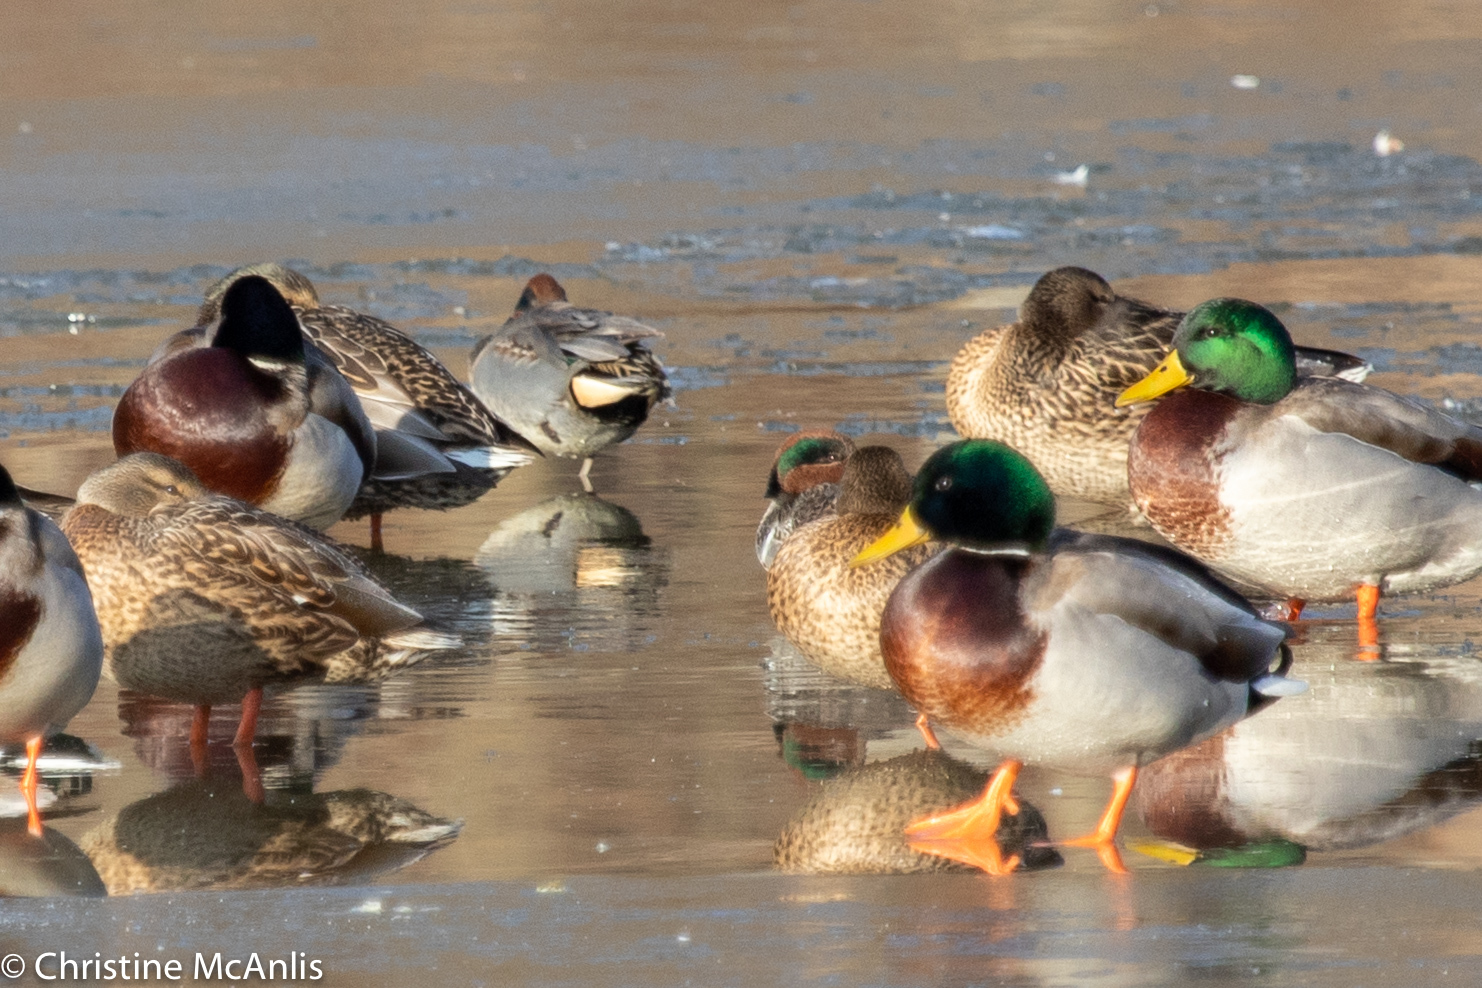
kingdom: Animalia
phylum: Chordata
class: Aves
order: Anseriformes
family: Anatidae
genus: Anas
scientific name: Anas crecca
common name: Eurasian teal
